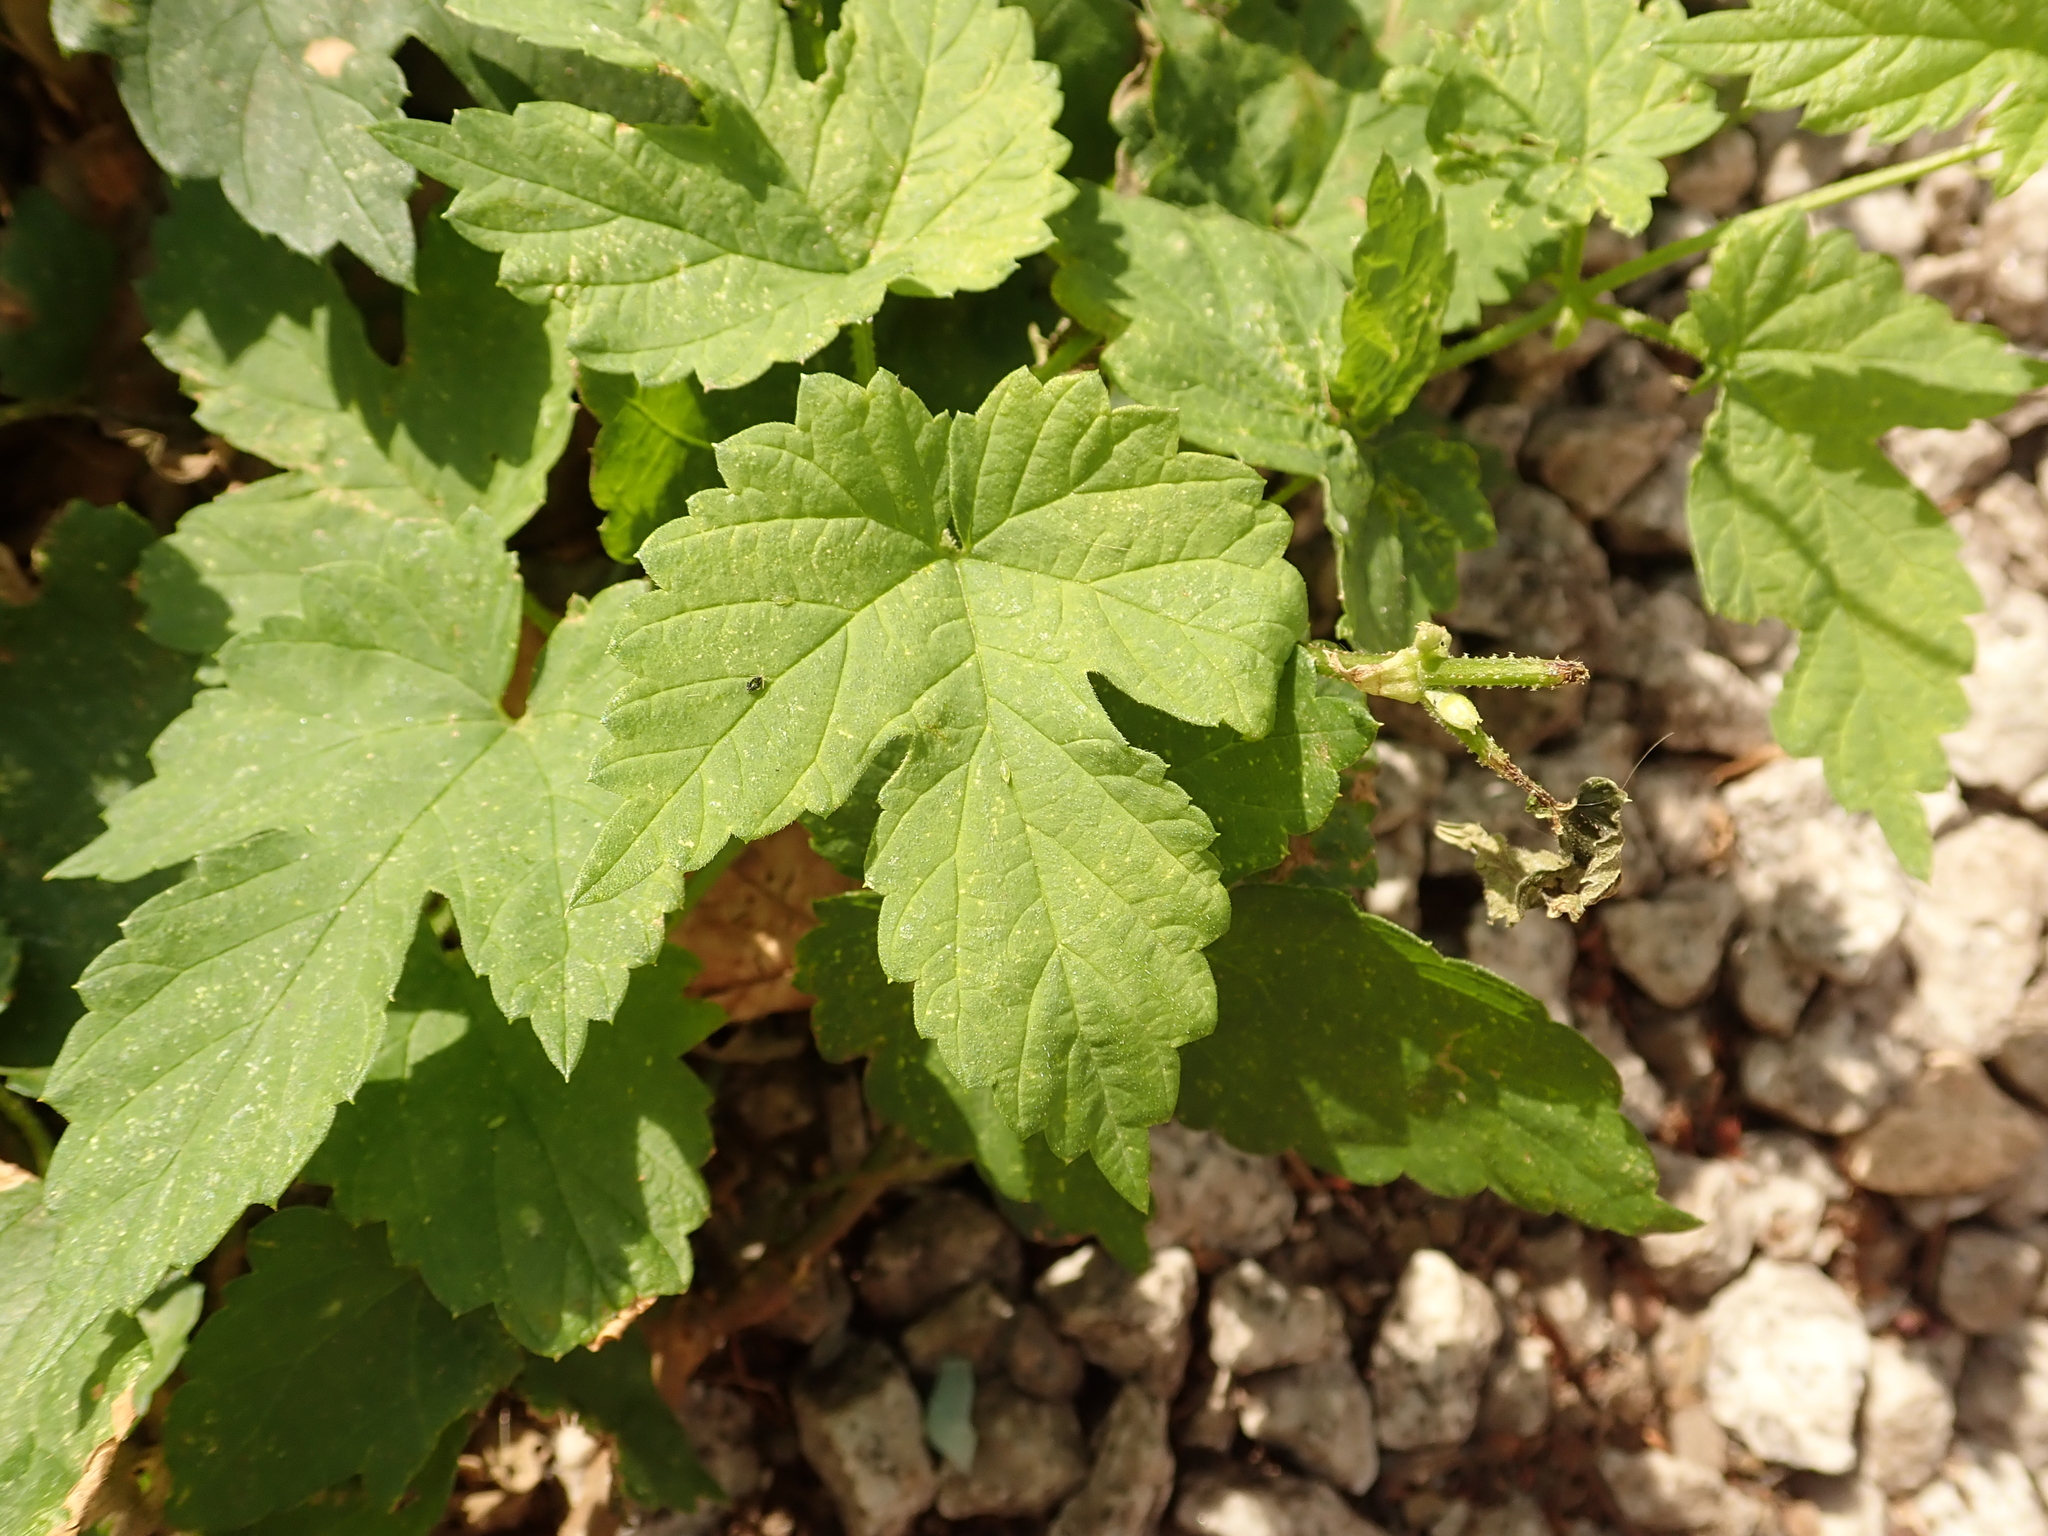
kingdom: Plantae
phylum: Tracheophyta
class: Magnoliopsida
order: Rosales
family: Cannabaceae
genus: Humulus
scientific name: Humulus lupulus
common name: Hop
